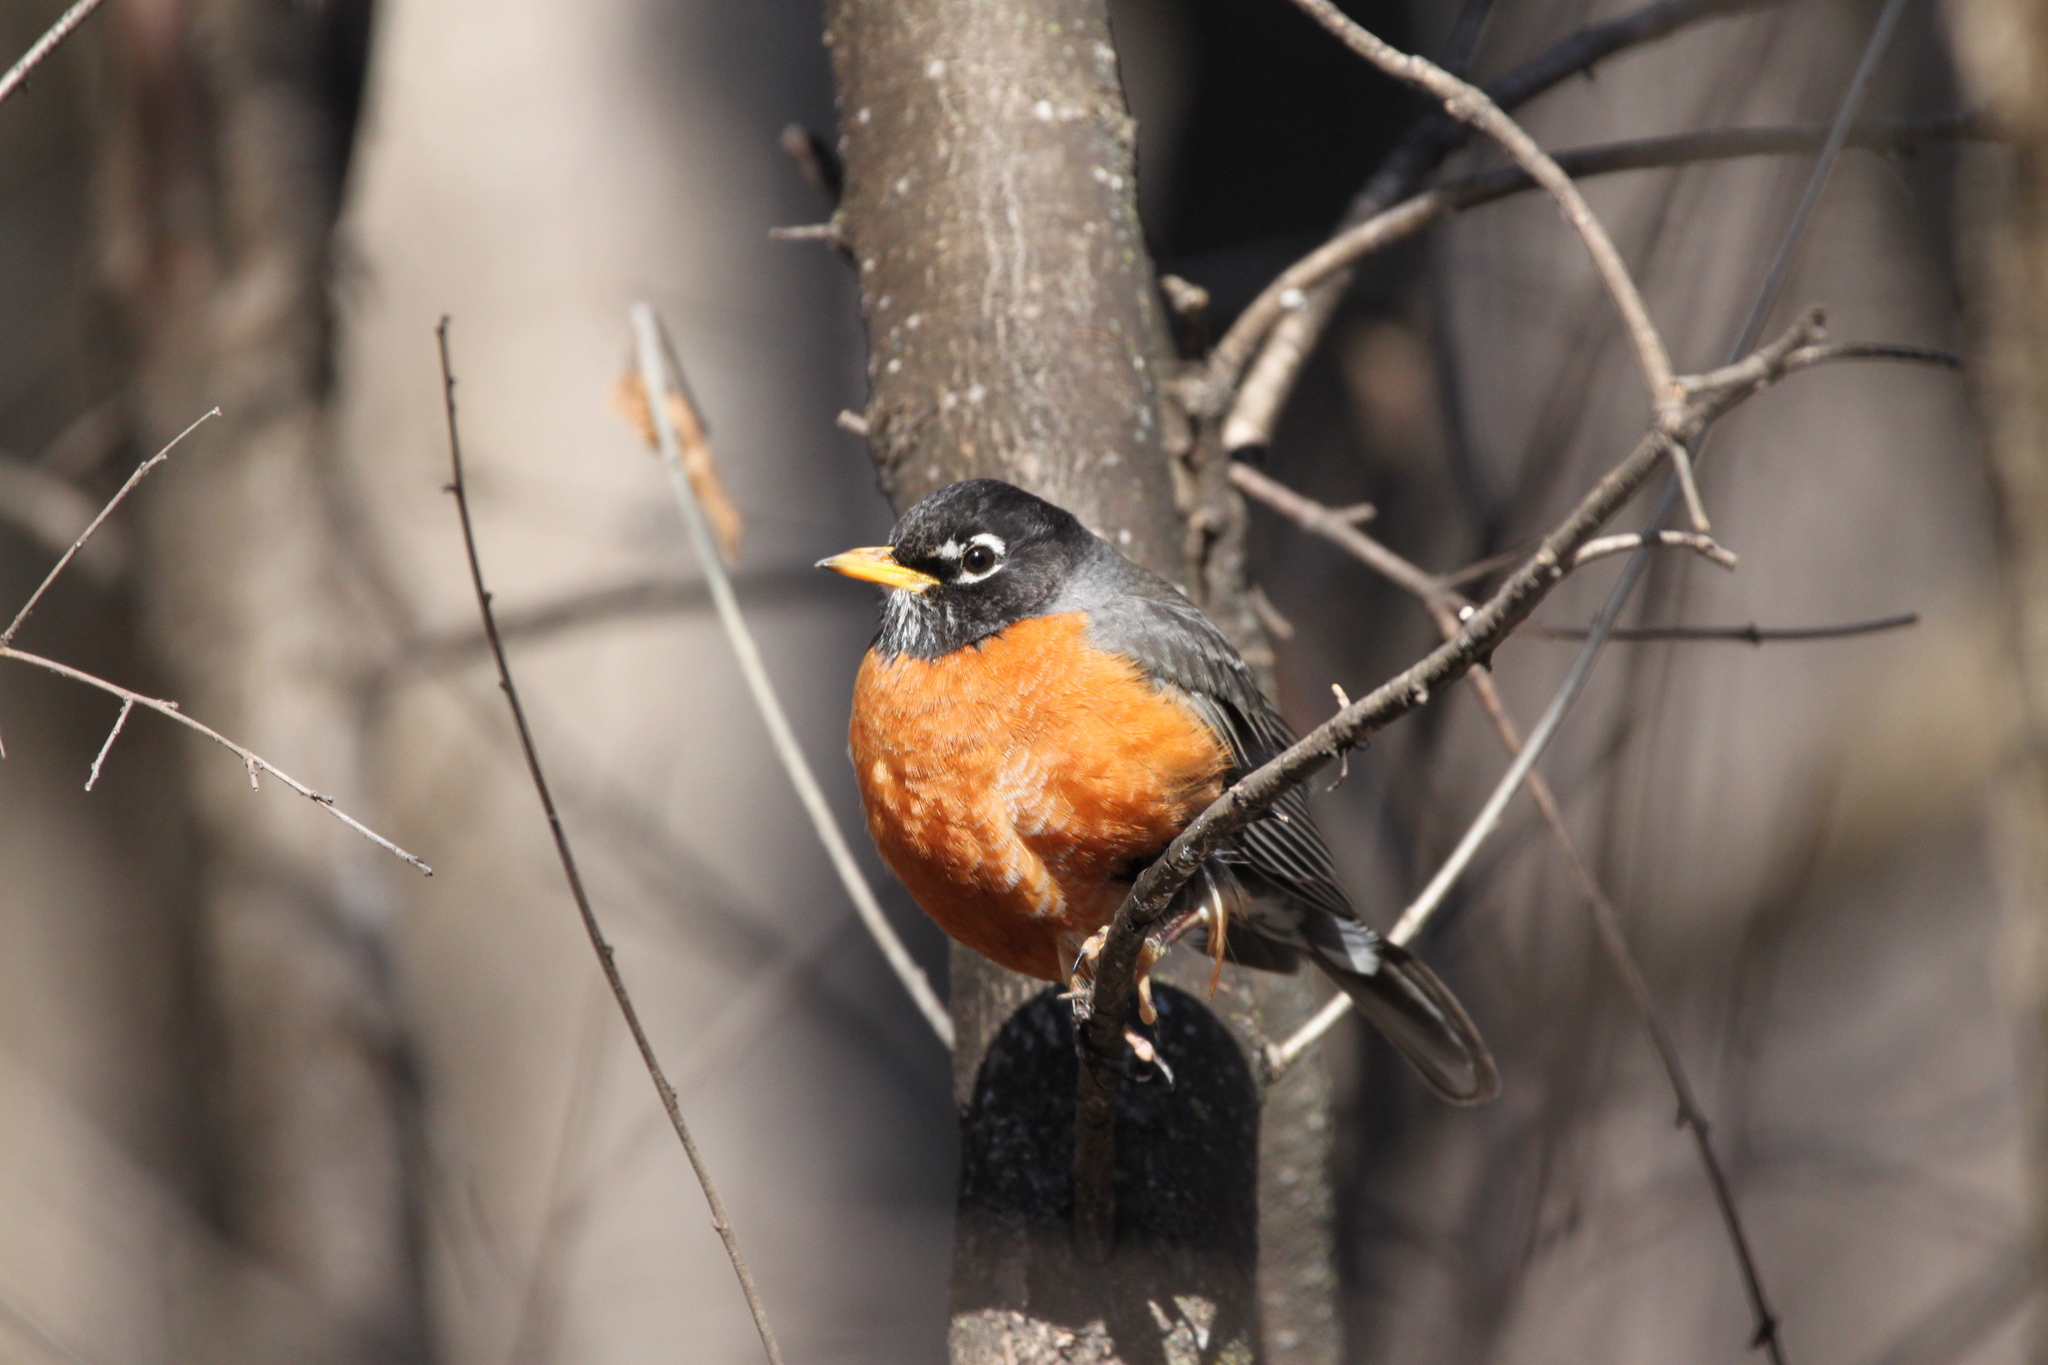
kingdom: Animalia
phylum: Chordata
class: Aves
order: Passeriformes
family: Turdidae
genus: Turdus
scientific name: Turdus migratorius
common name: American robin
